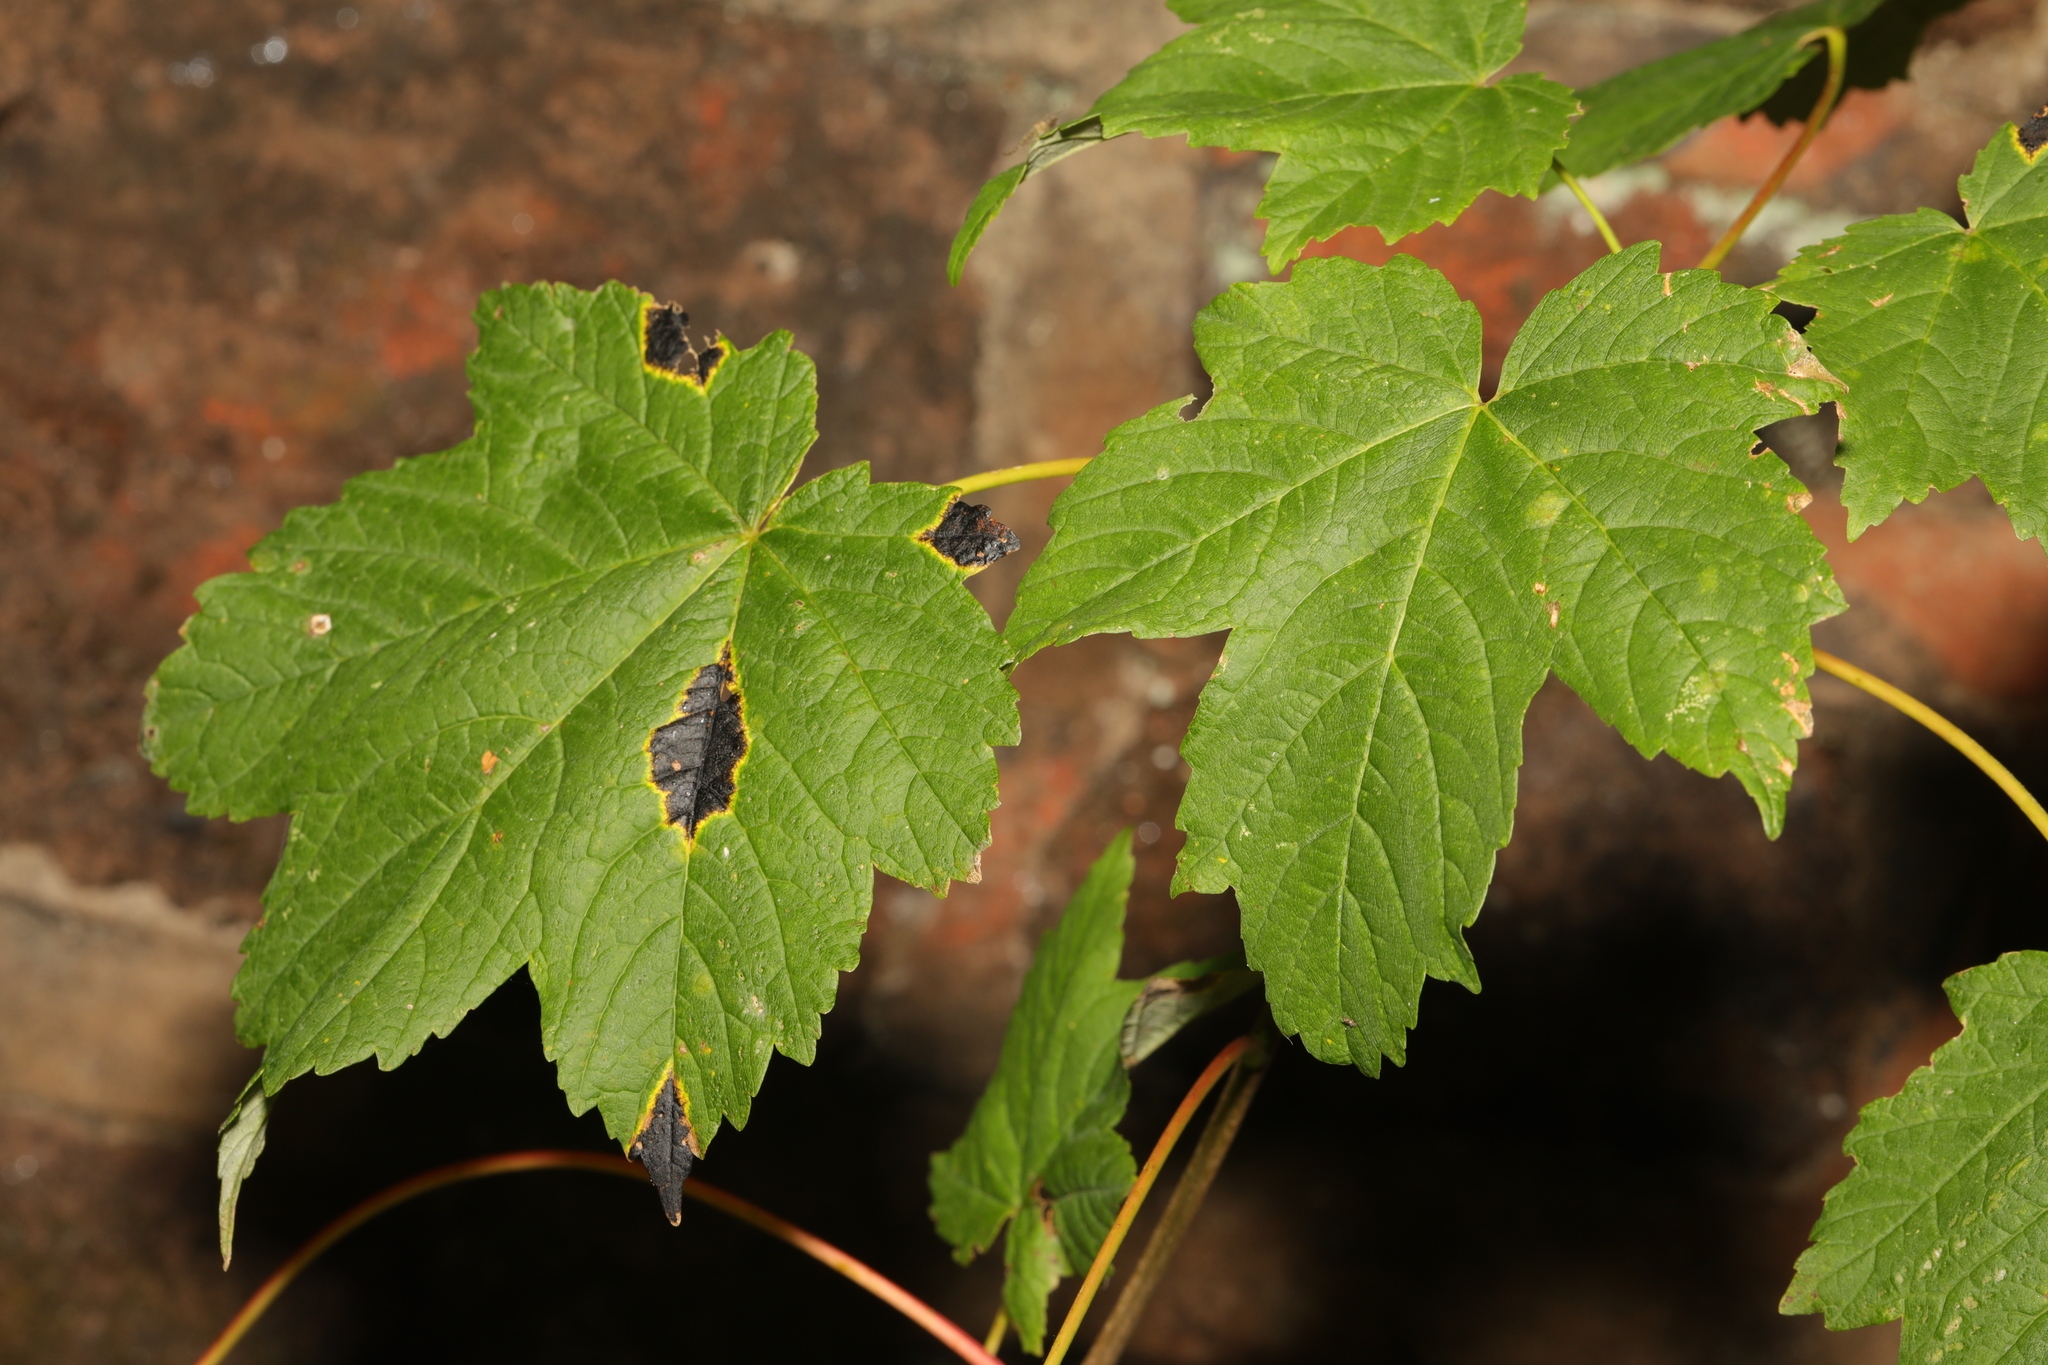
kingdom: Plantae
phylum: Tracheophyta
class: Magnoliopsida
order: Sapindales
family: Sapindaceae
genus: Acer
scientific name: Acer pseudoplatanus
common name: Sycamore
